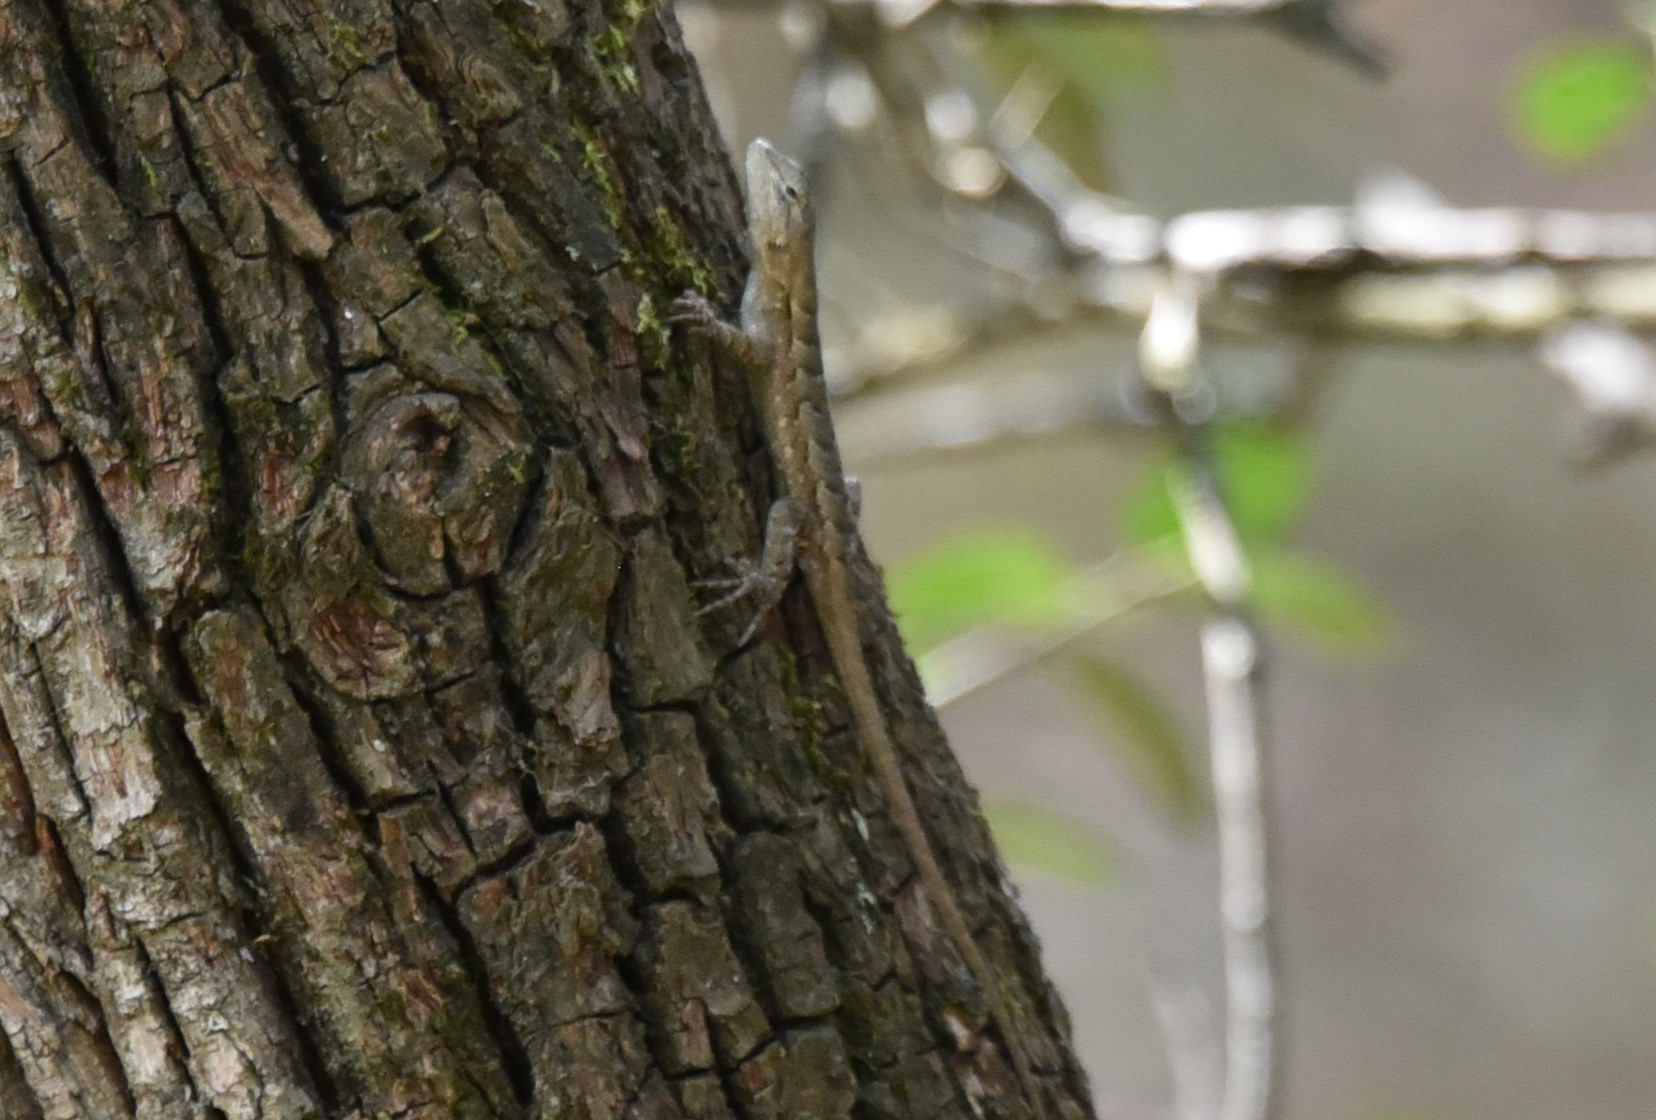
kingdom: Animalia
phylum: Chordata
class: Squamata
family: Phrynosomatidae
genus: Sceloporus
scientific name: Sceloporus consobrinus
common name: Southern prairie lizard
